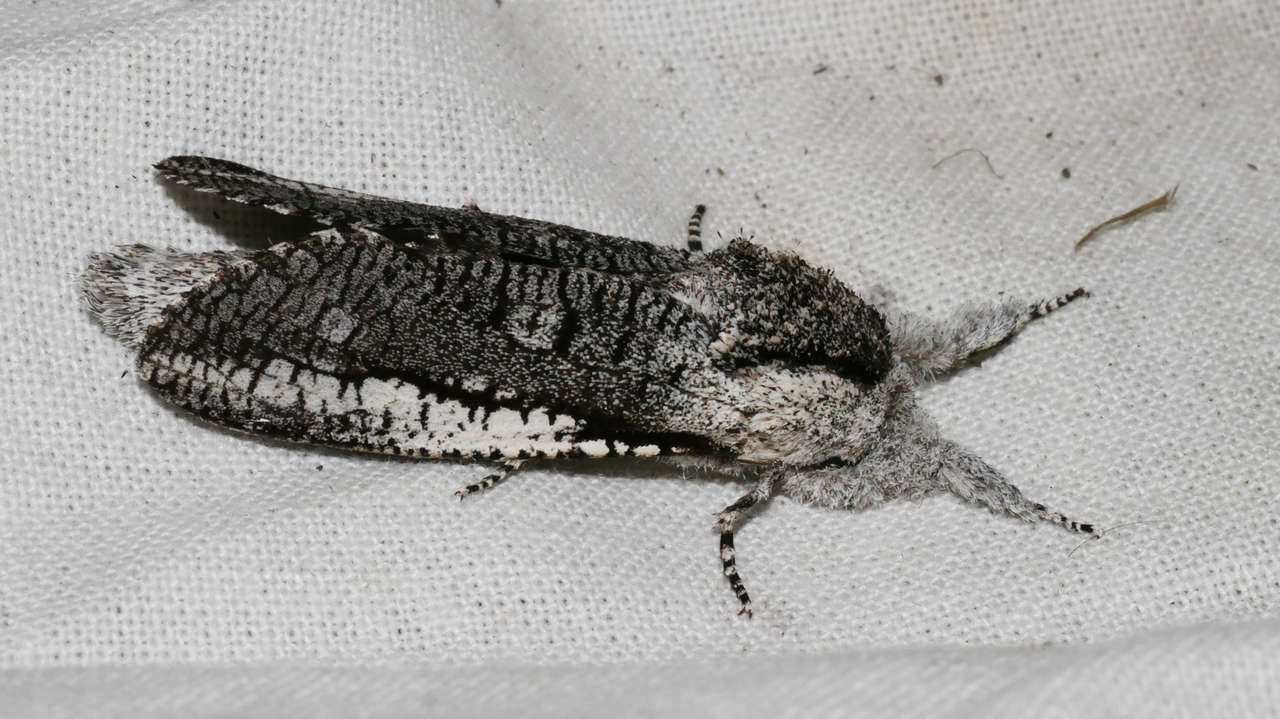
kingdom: Animalia
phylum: Arthropoda
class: Insecta
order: Lepidoptera
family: Cossidae
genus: Endoxyla
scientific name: Endoxyla secta
